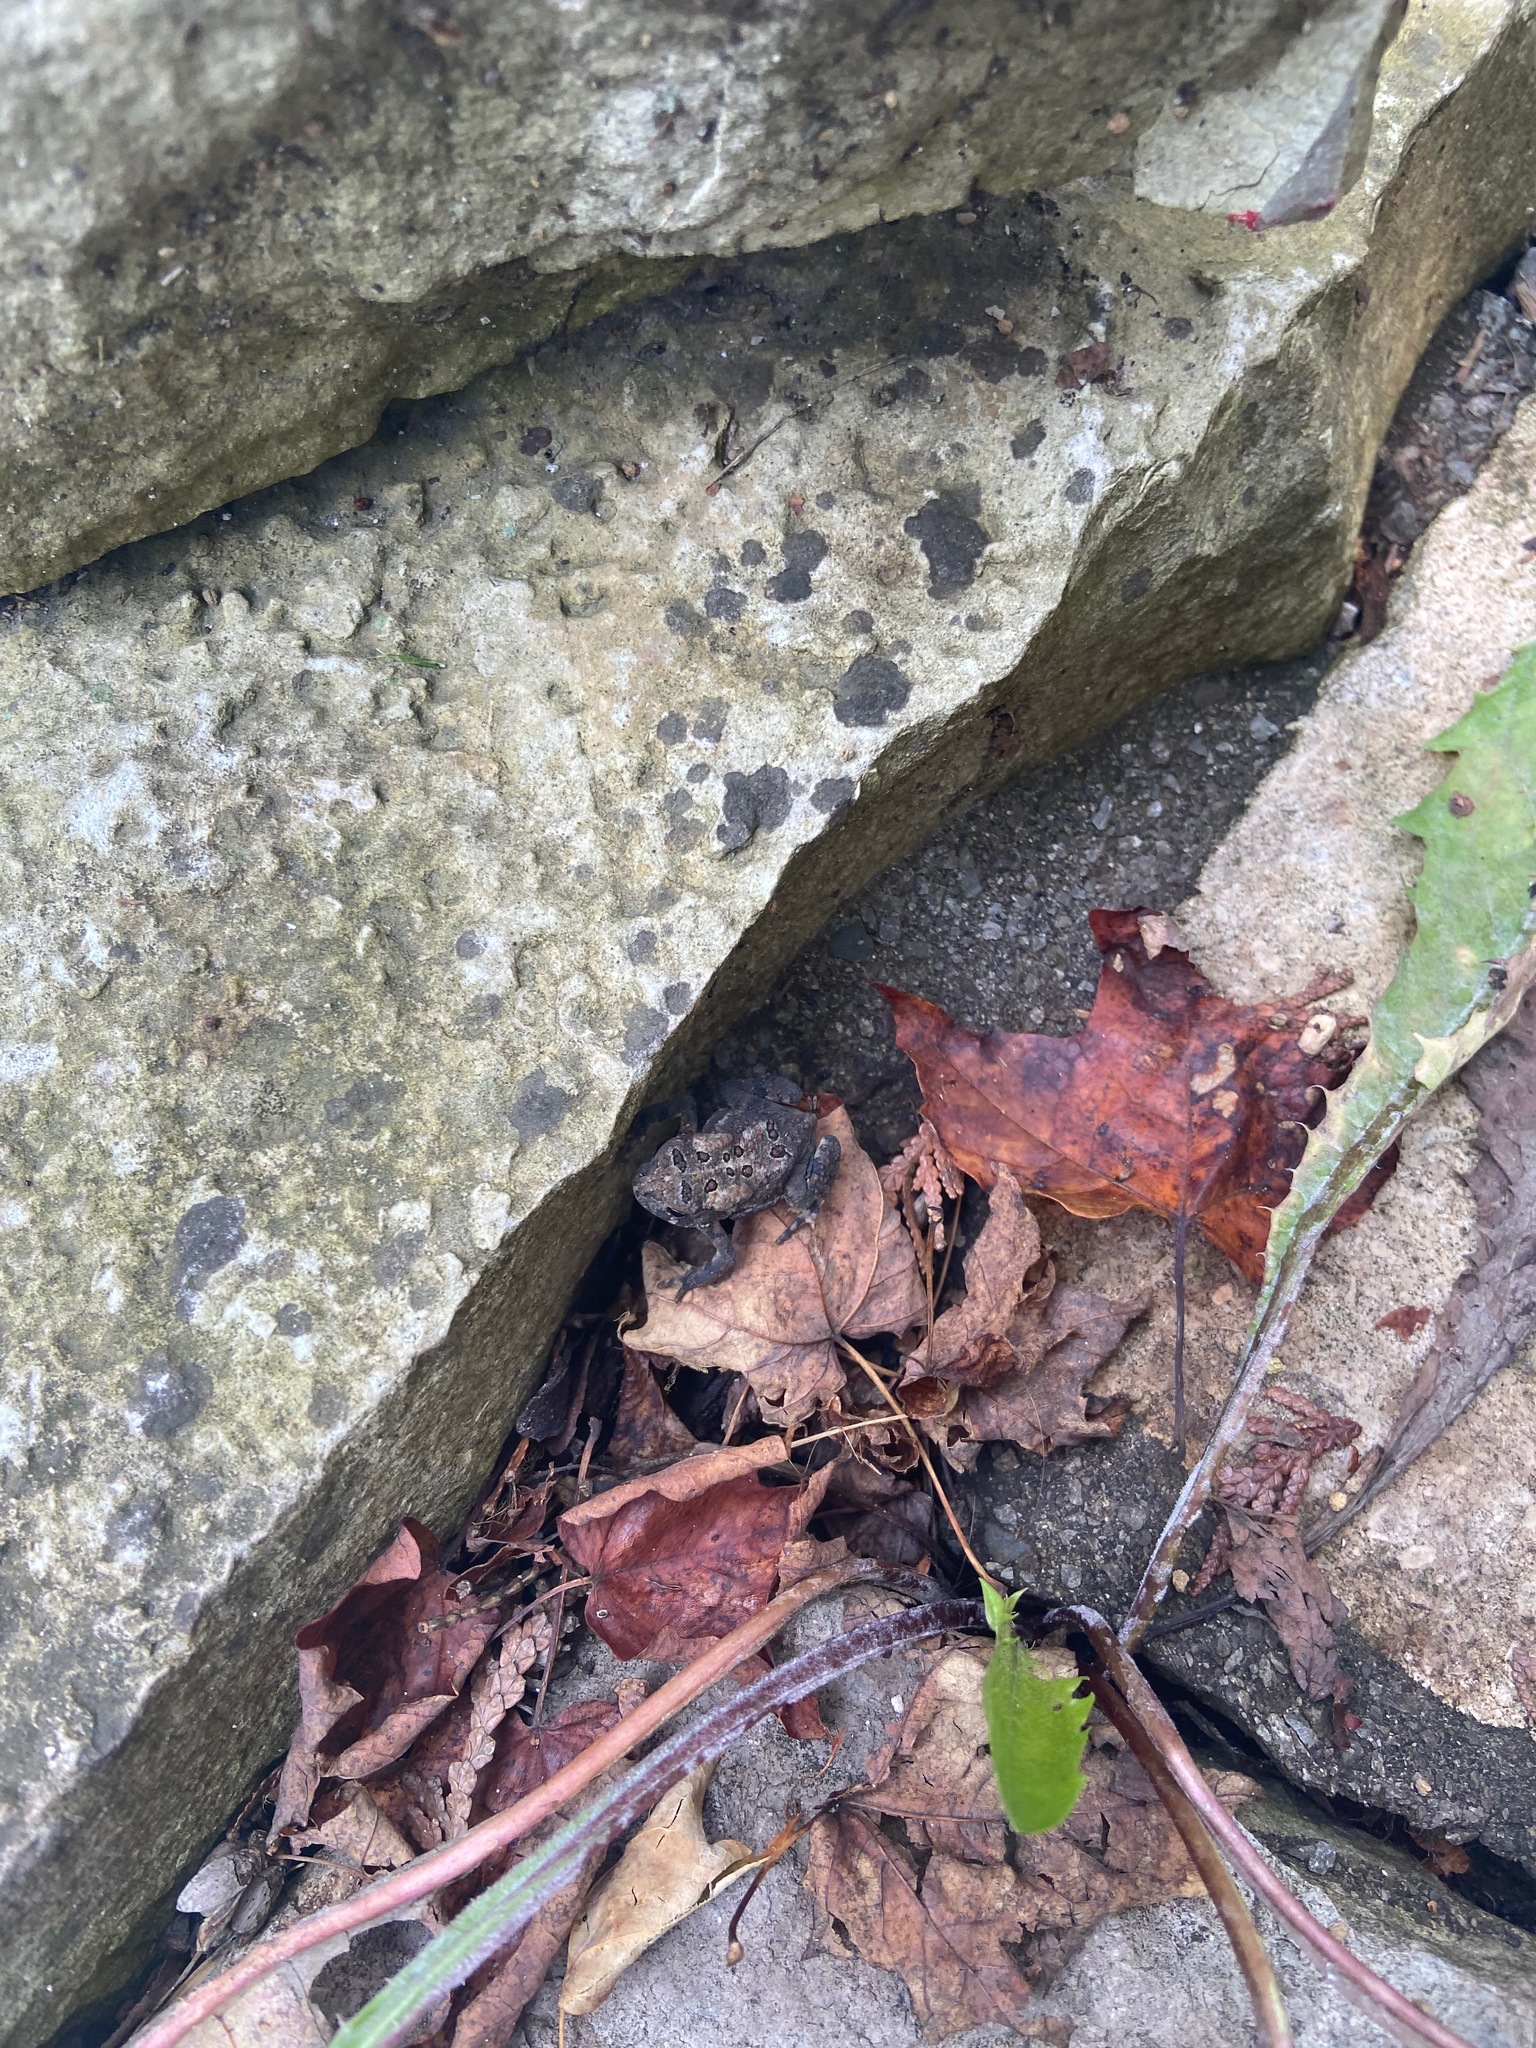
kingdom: Animalia
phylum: Chordata
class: Amphibia
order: Anura
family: Bufonidae
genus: Anaxyrus
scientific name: Anaxyrus americanus
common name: American toad
